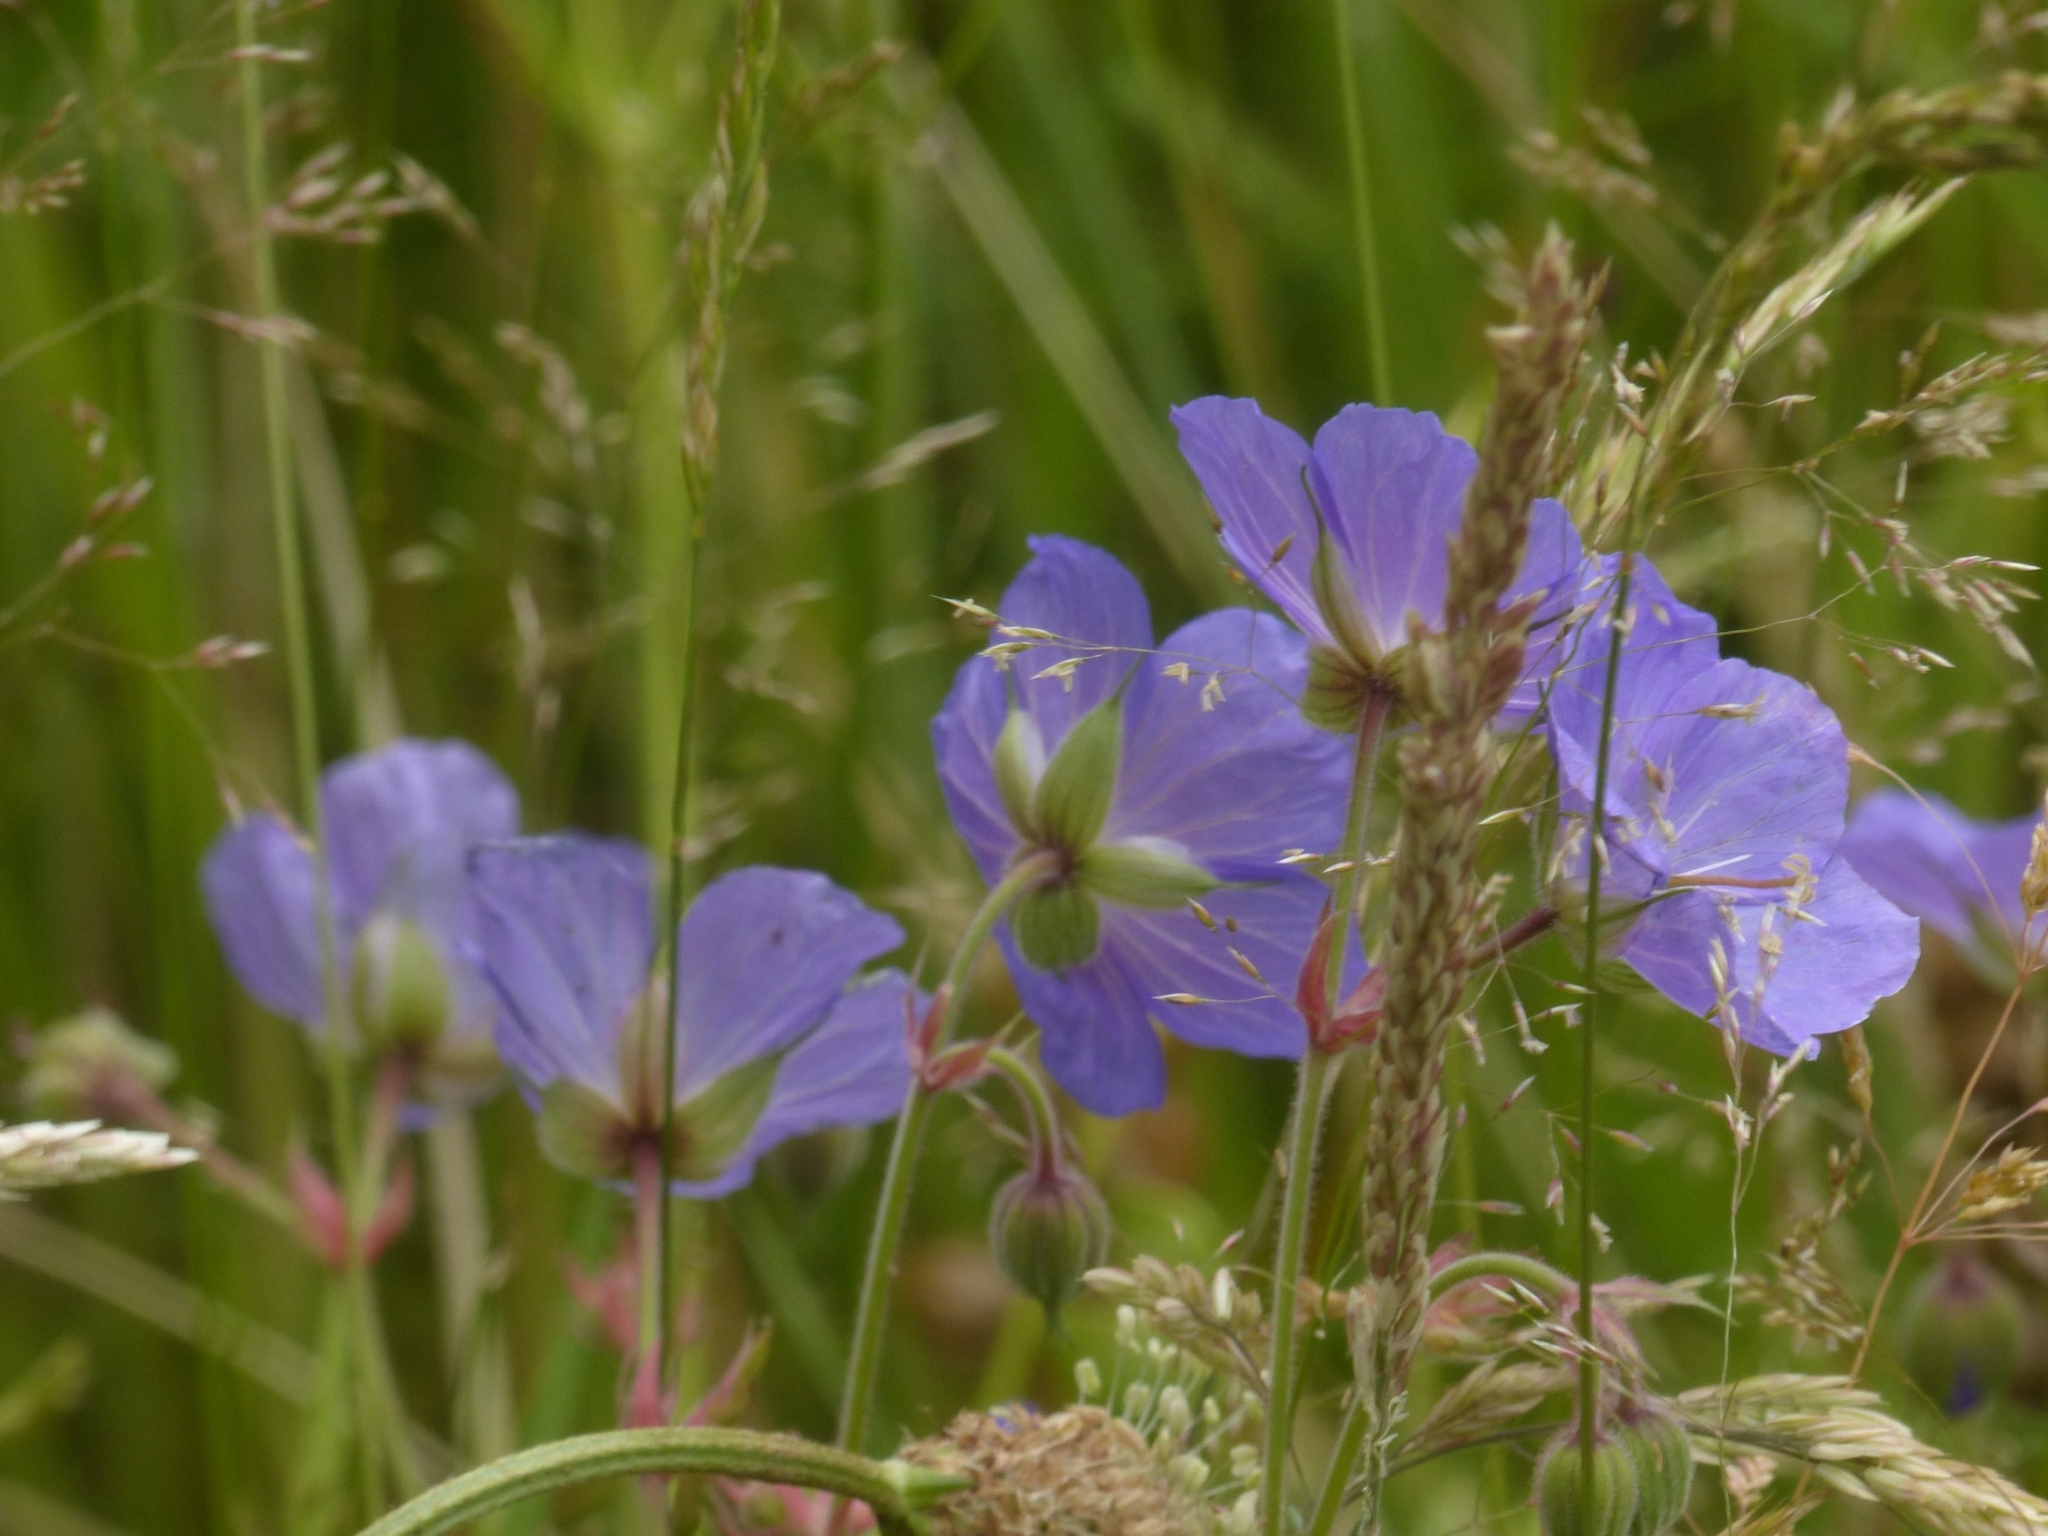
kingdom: Plantae
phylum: Tracheophyta
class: Magnoliopsida
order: Geraniales
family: Geraniaceae
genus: Geranium
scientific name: Geranium pratense
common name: Meadow crane's-bill
